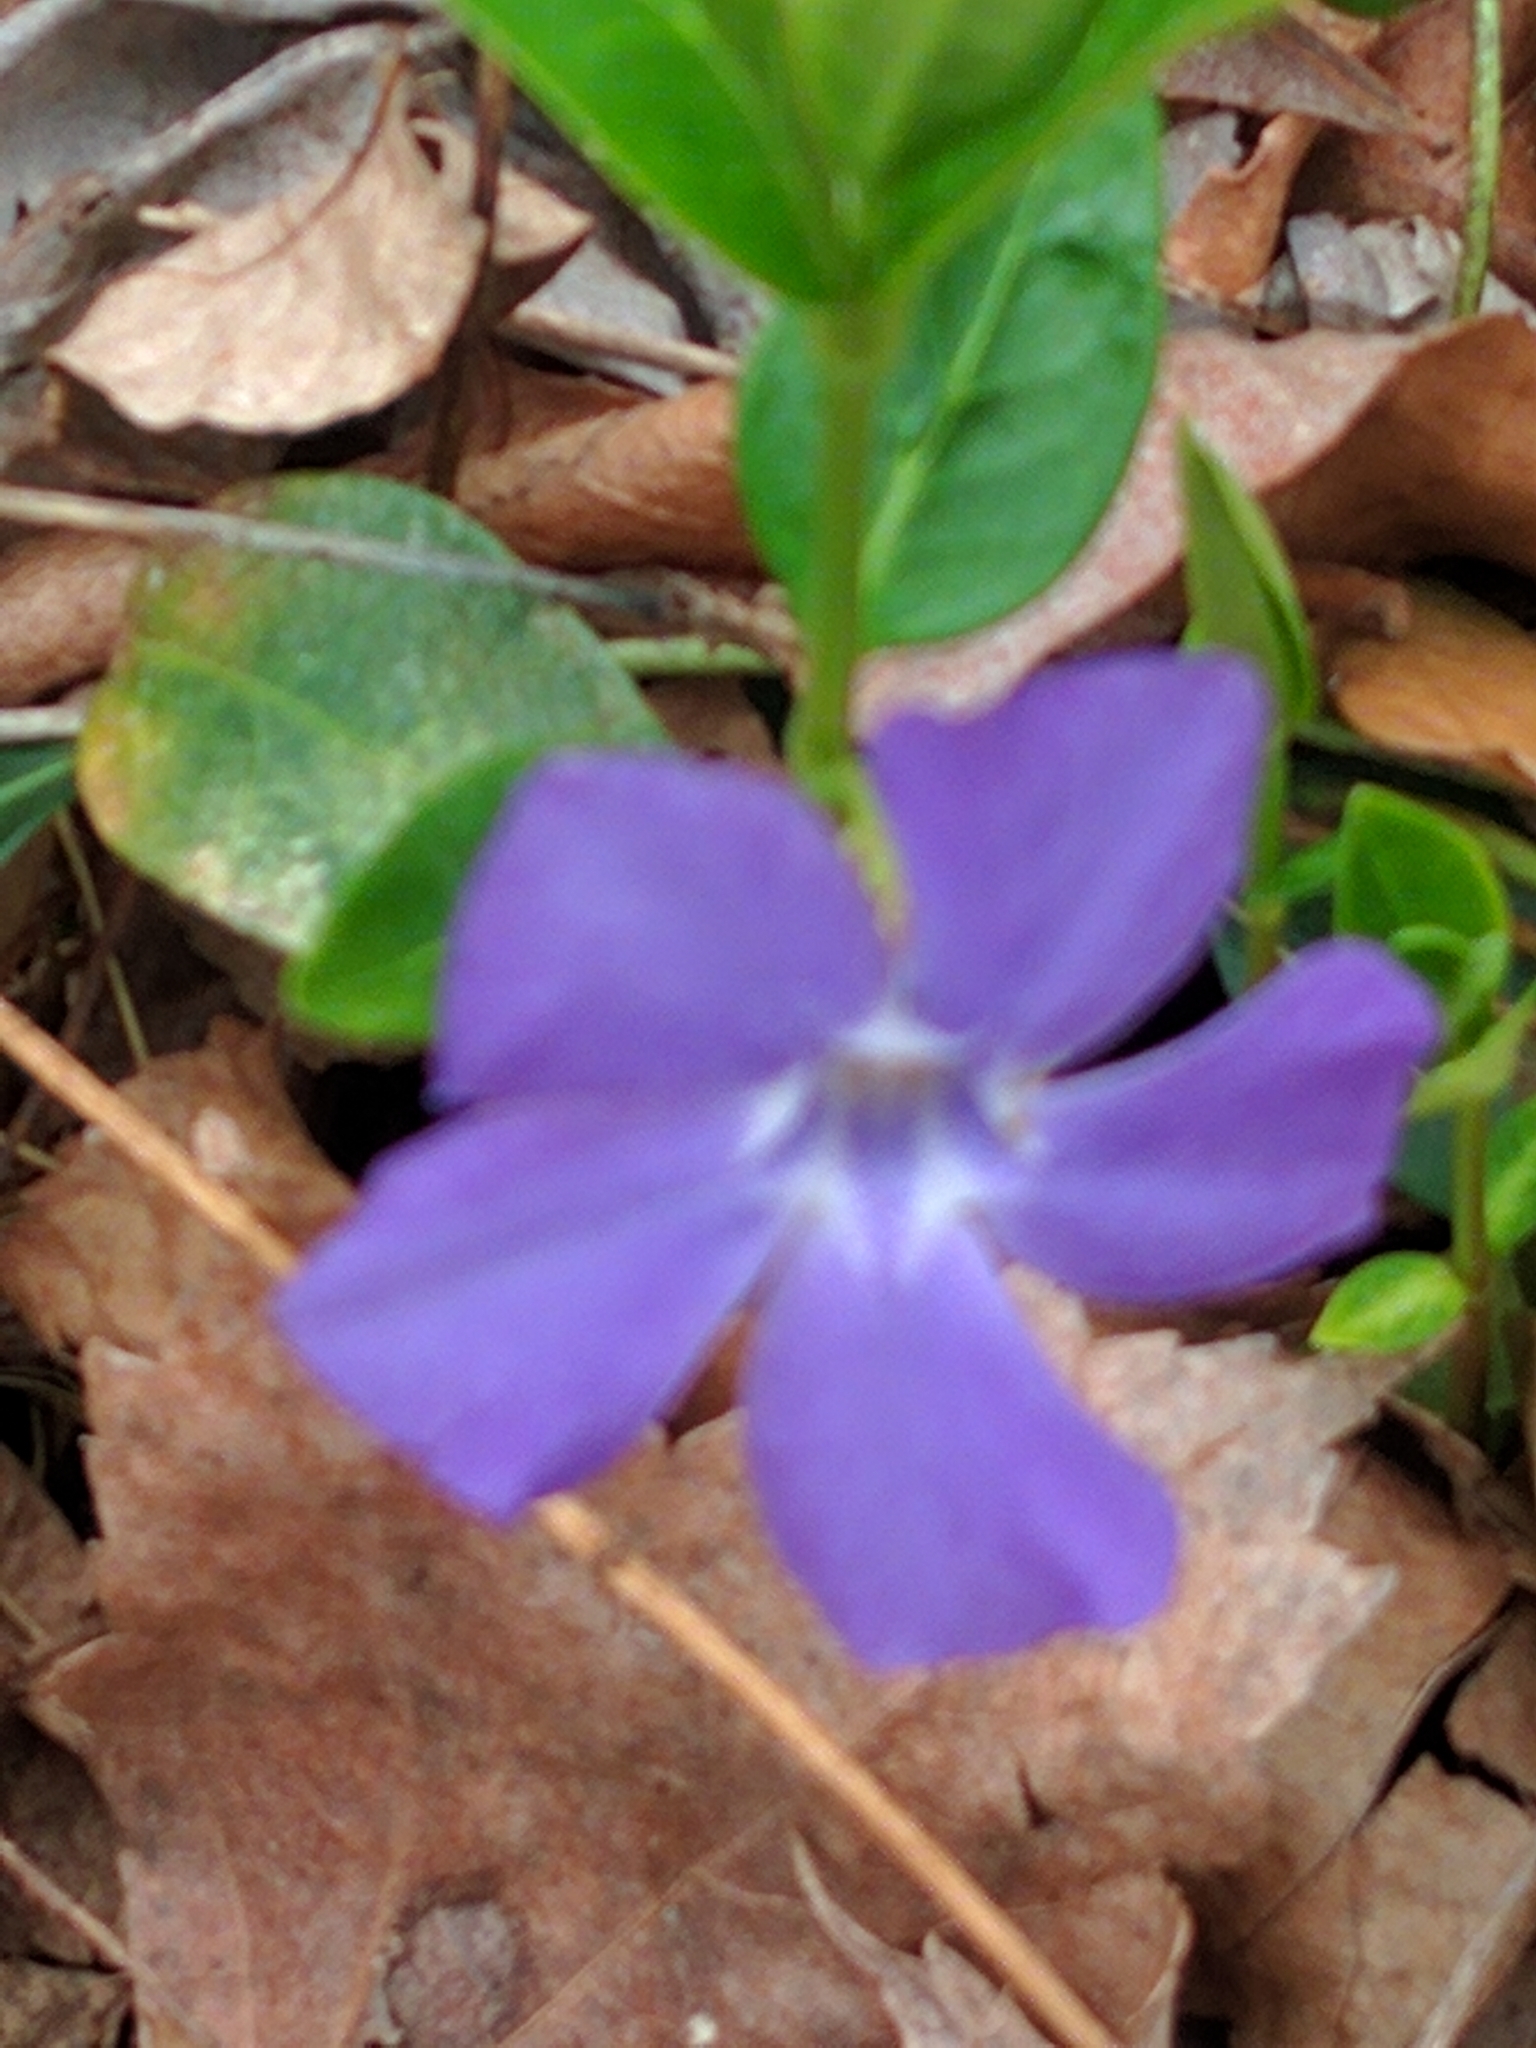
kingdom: Plantae
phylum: Tracheophyta
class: Magnoliopsida
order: Gentianales
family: Apocynaceae
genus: Vinca
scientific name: Vinca minor
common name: Lesser periwinkle
